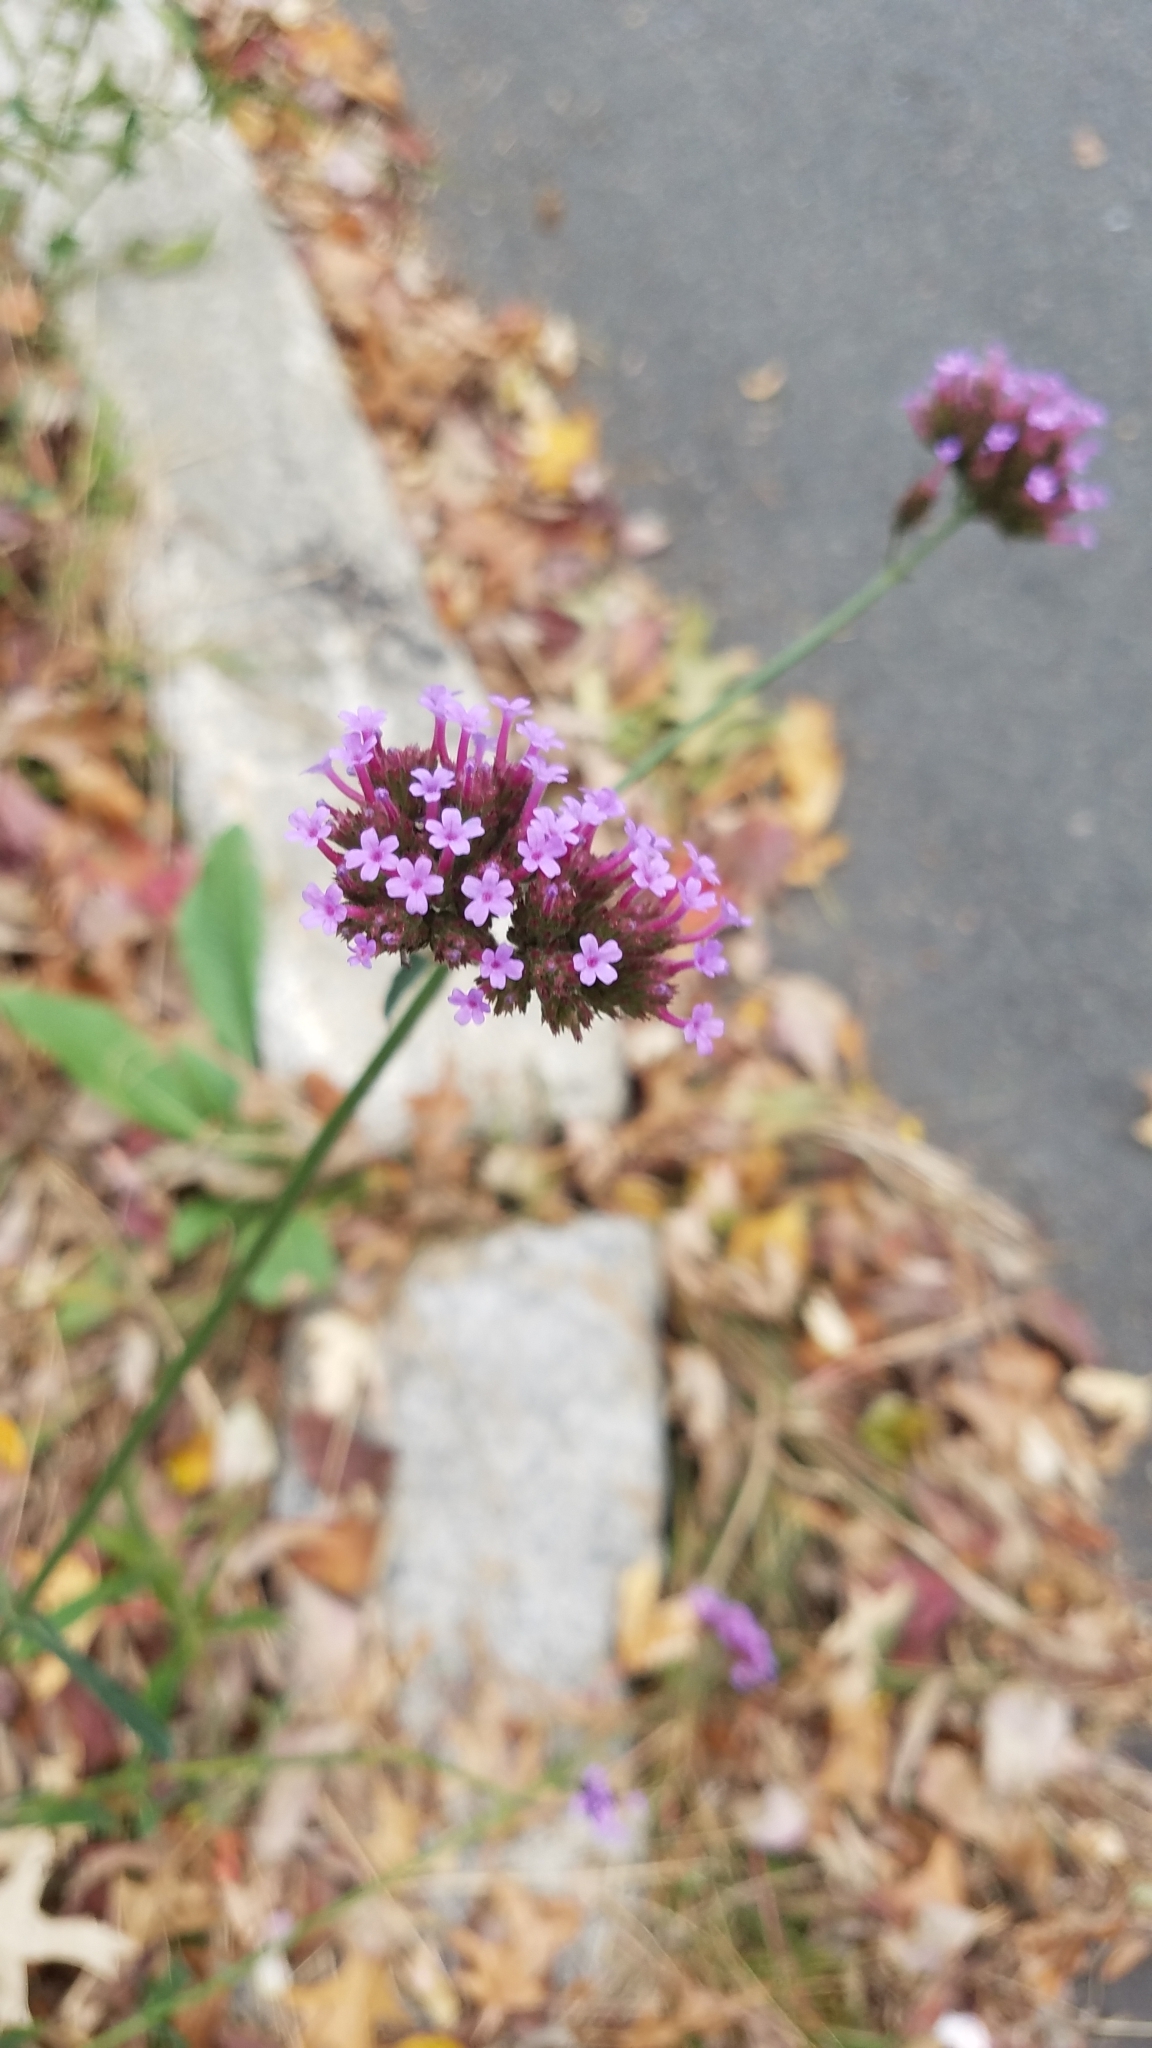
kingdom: Plantae
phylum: Tracheophyta
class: Magnoliopsida
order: Lamiales
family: Verbenaceae
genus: Verbena
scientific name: Verbena bonariensis
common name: Purpletop vervain
